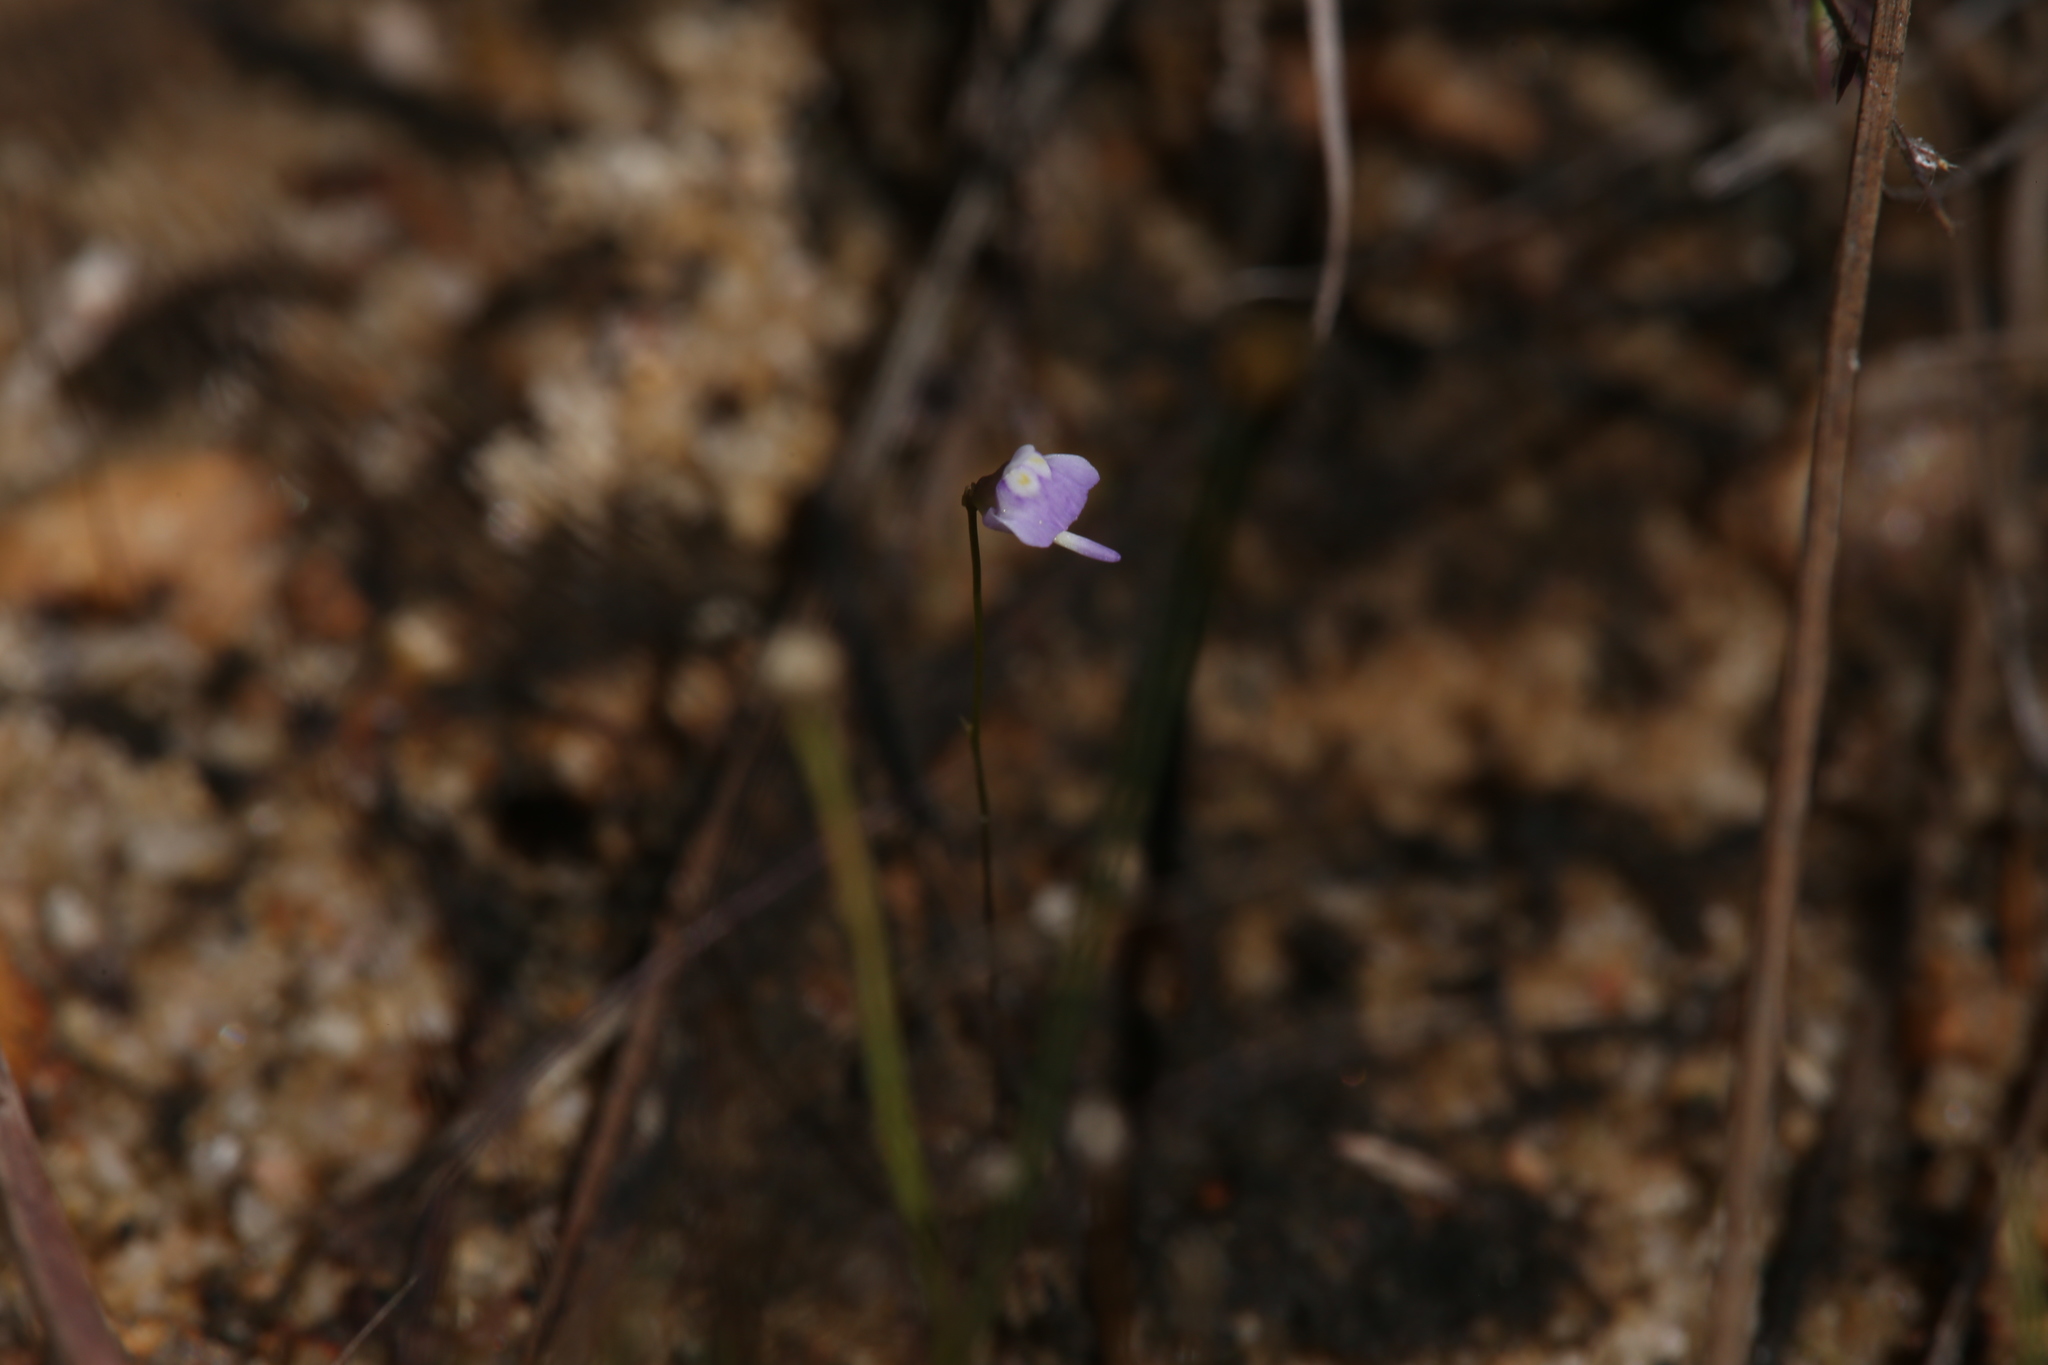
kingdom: Plantae
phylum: Tracheophyta
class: Magnoliopsida
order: Lamiales
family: Lentibulariaceae
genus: Utricularia
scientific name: Utricularia geoffrayi
